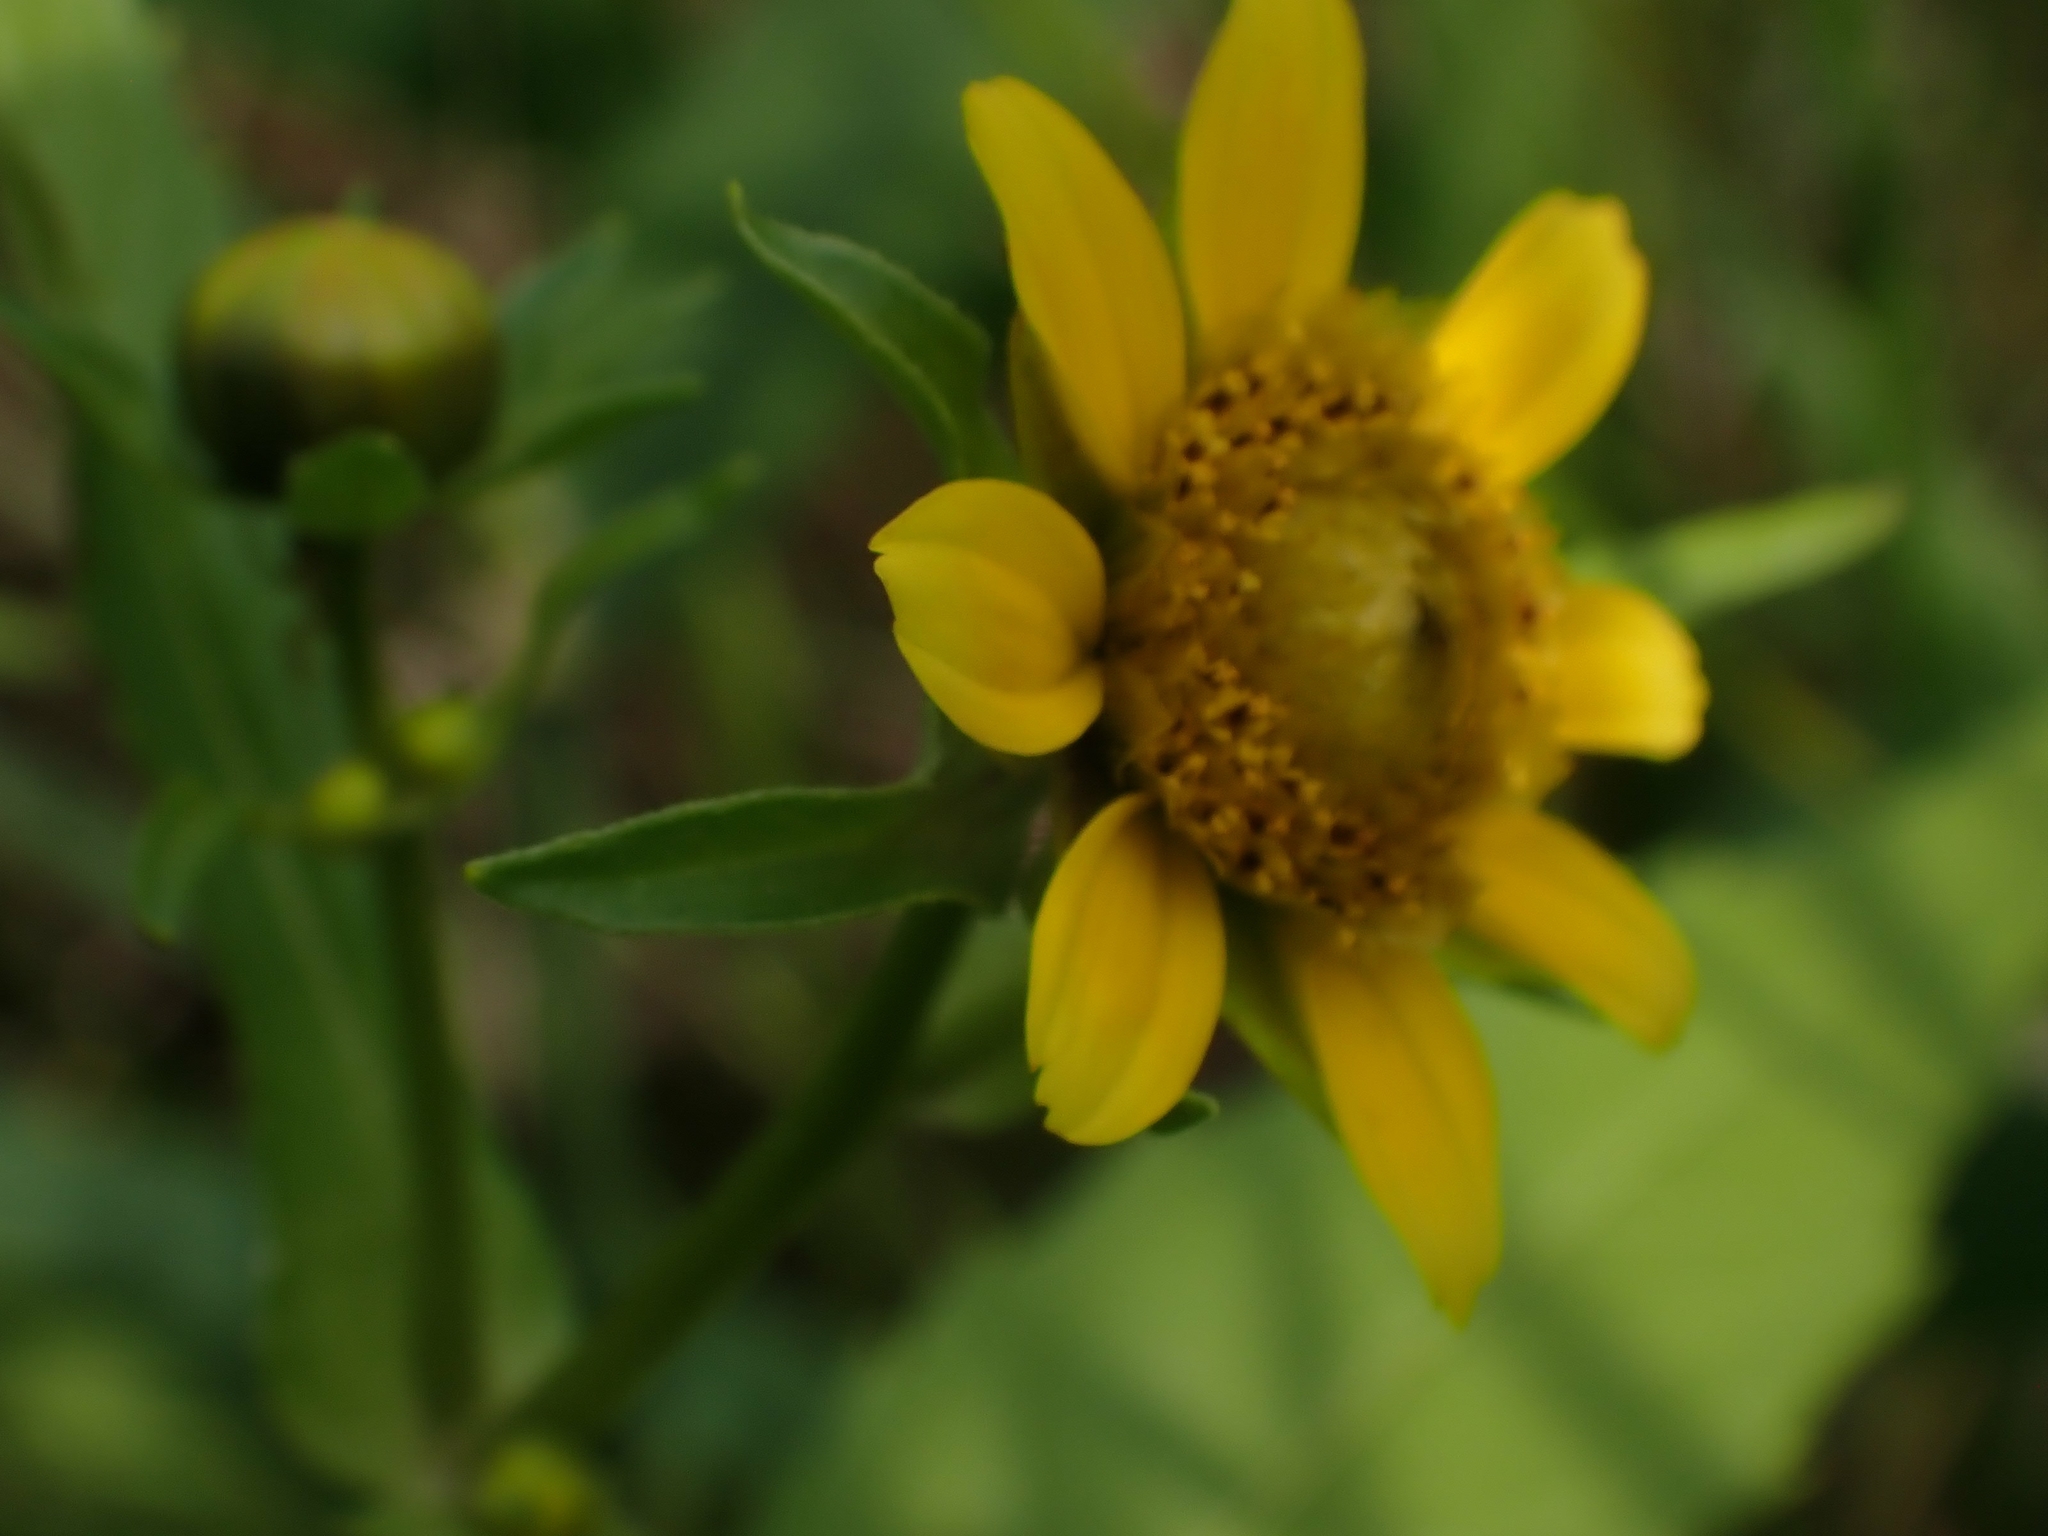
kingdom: Plantae
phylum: Tracheophyta
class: Magnoliopsida
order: Asterales
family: Asteraceae
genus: Bidens
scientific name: Bidens cernua
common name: Nodding bur-marigold
